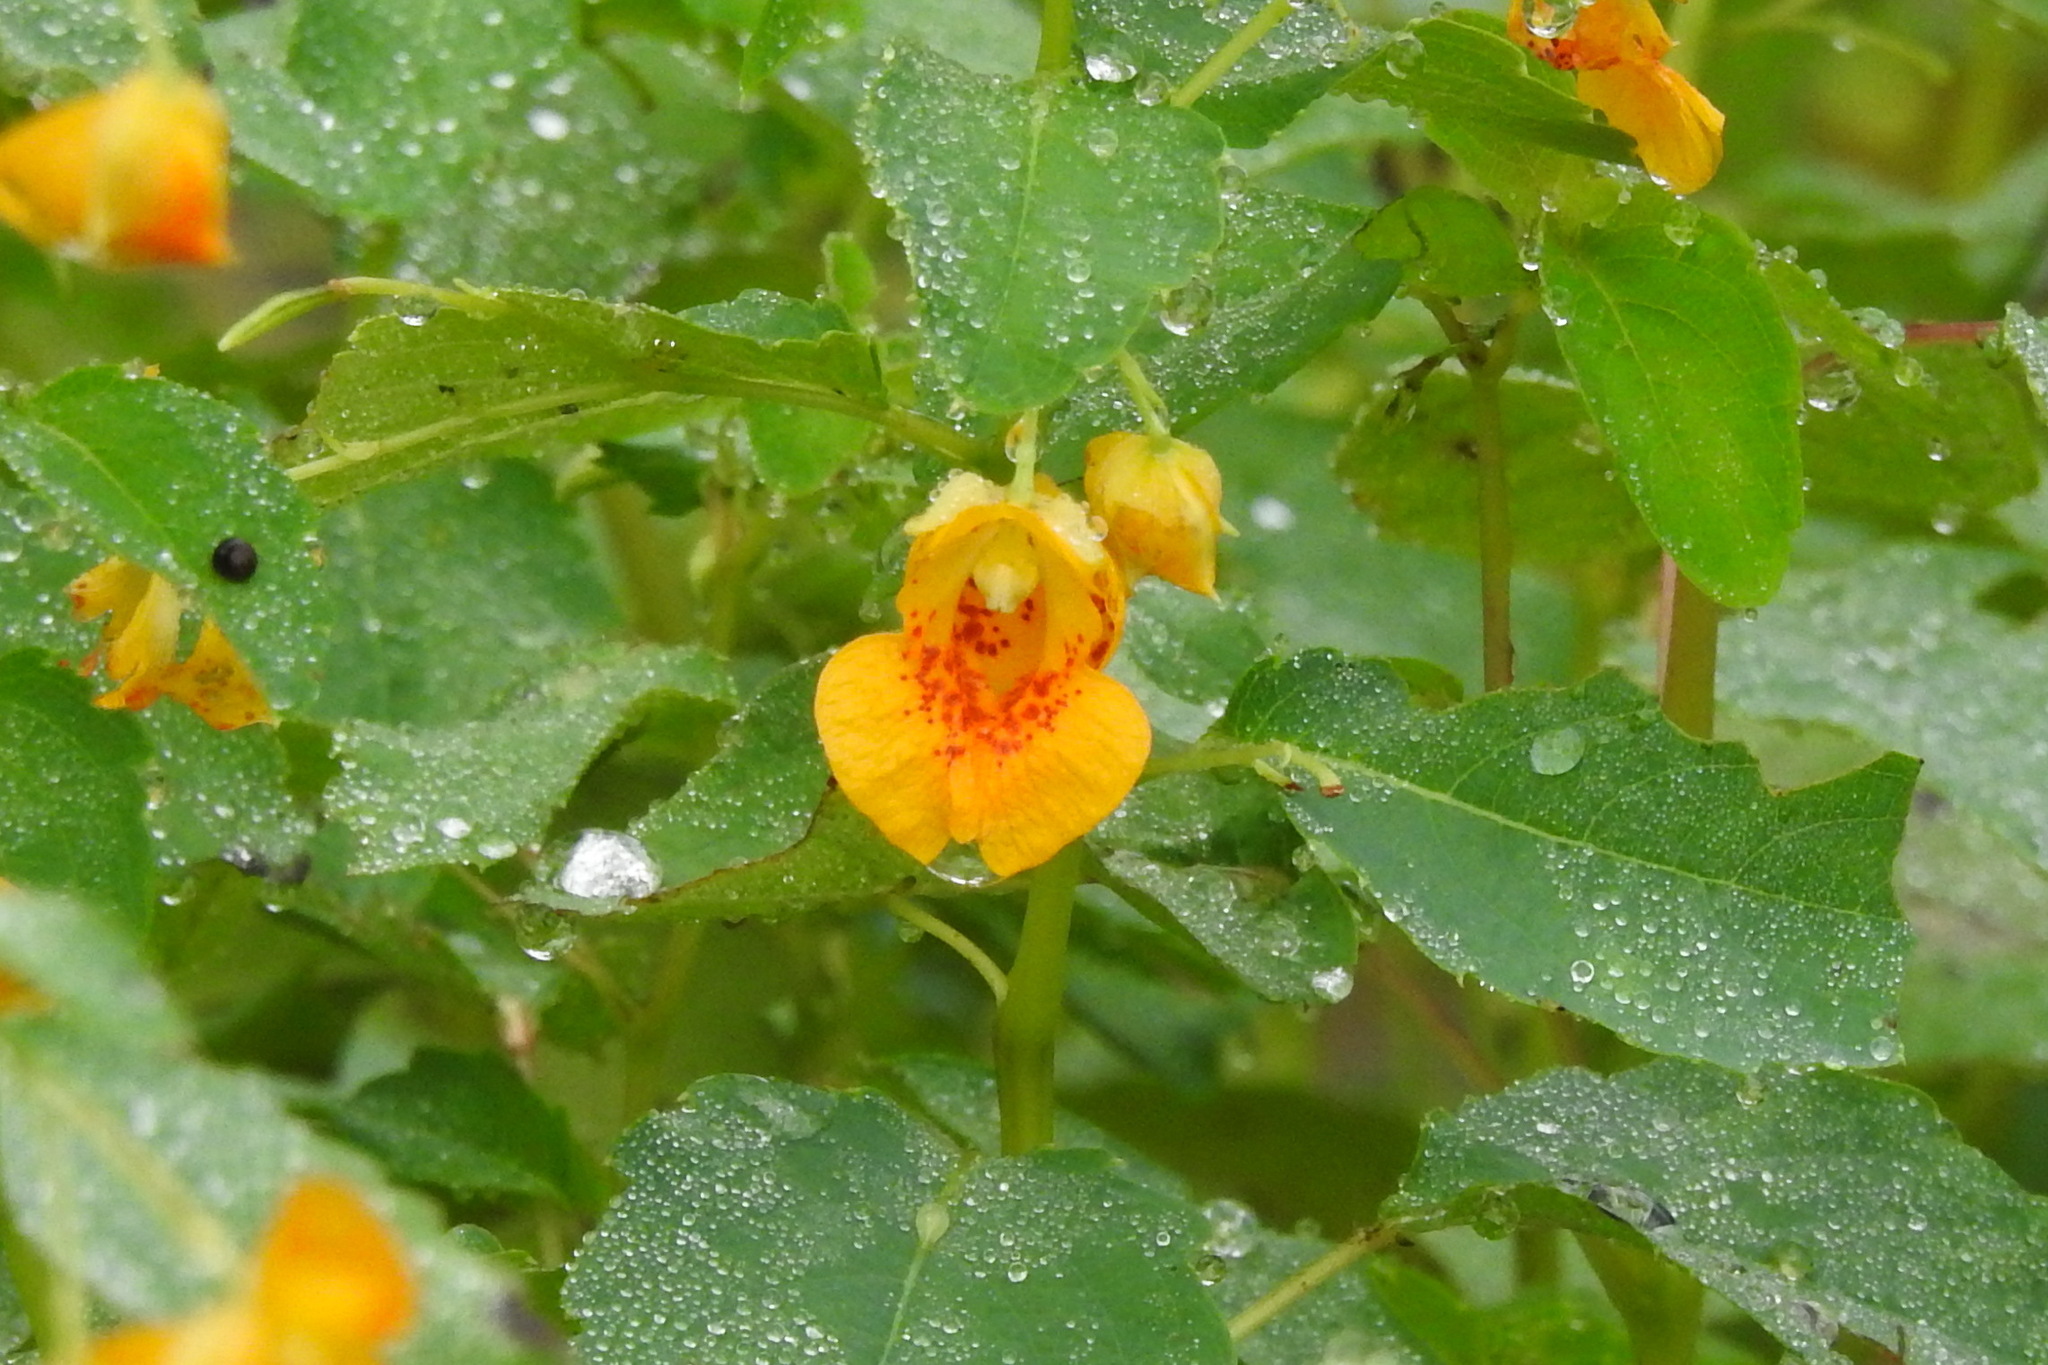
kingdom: Plantae
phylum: Tracheophyta
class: Magnoliopsida
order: Ericales
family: Balsaminaceae
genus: Impatiens
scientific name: Impatiens capensis
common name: Orange balsam
